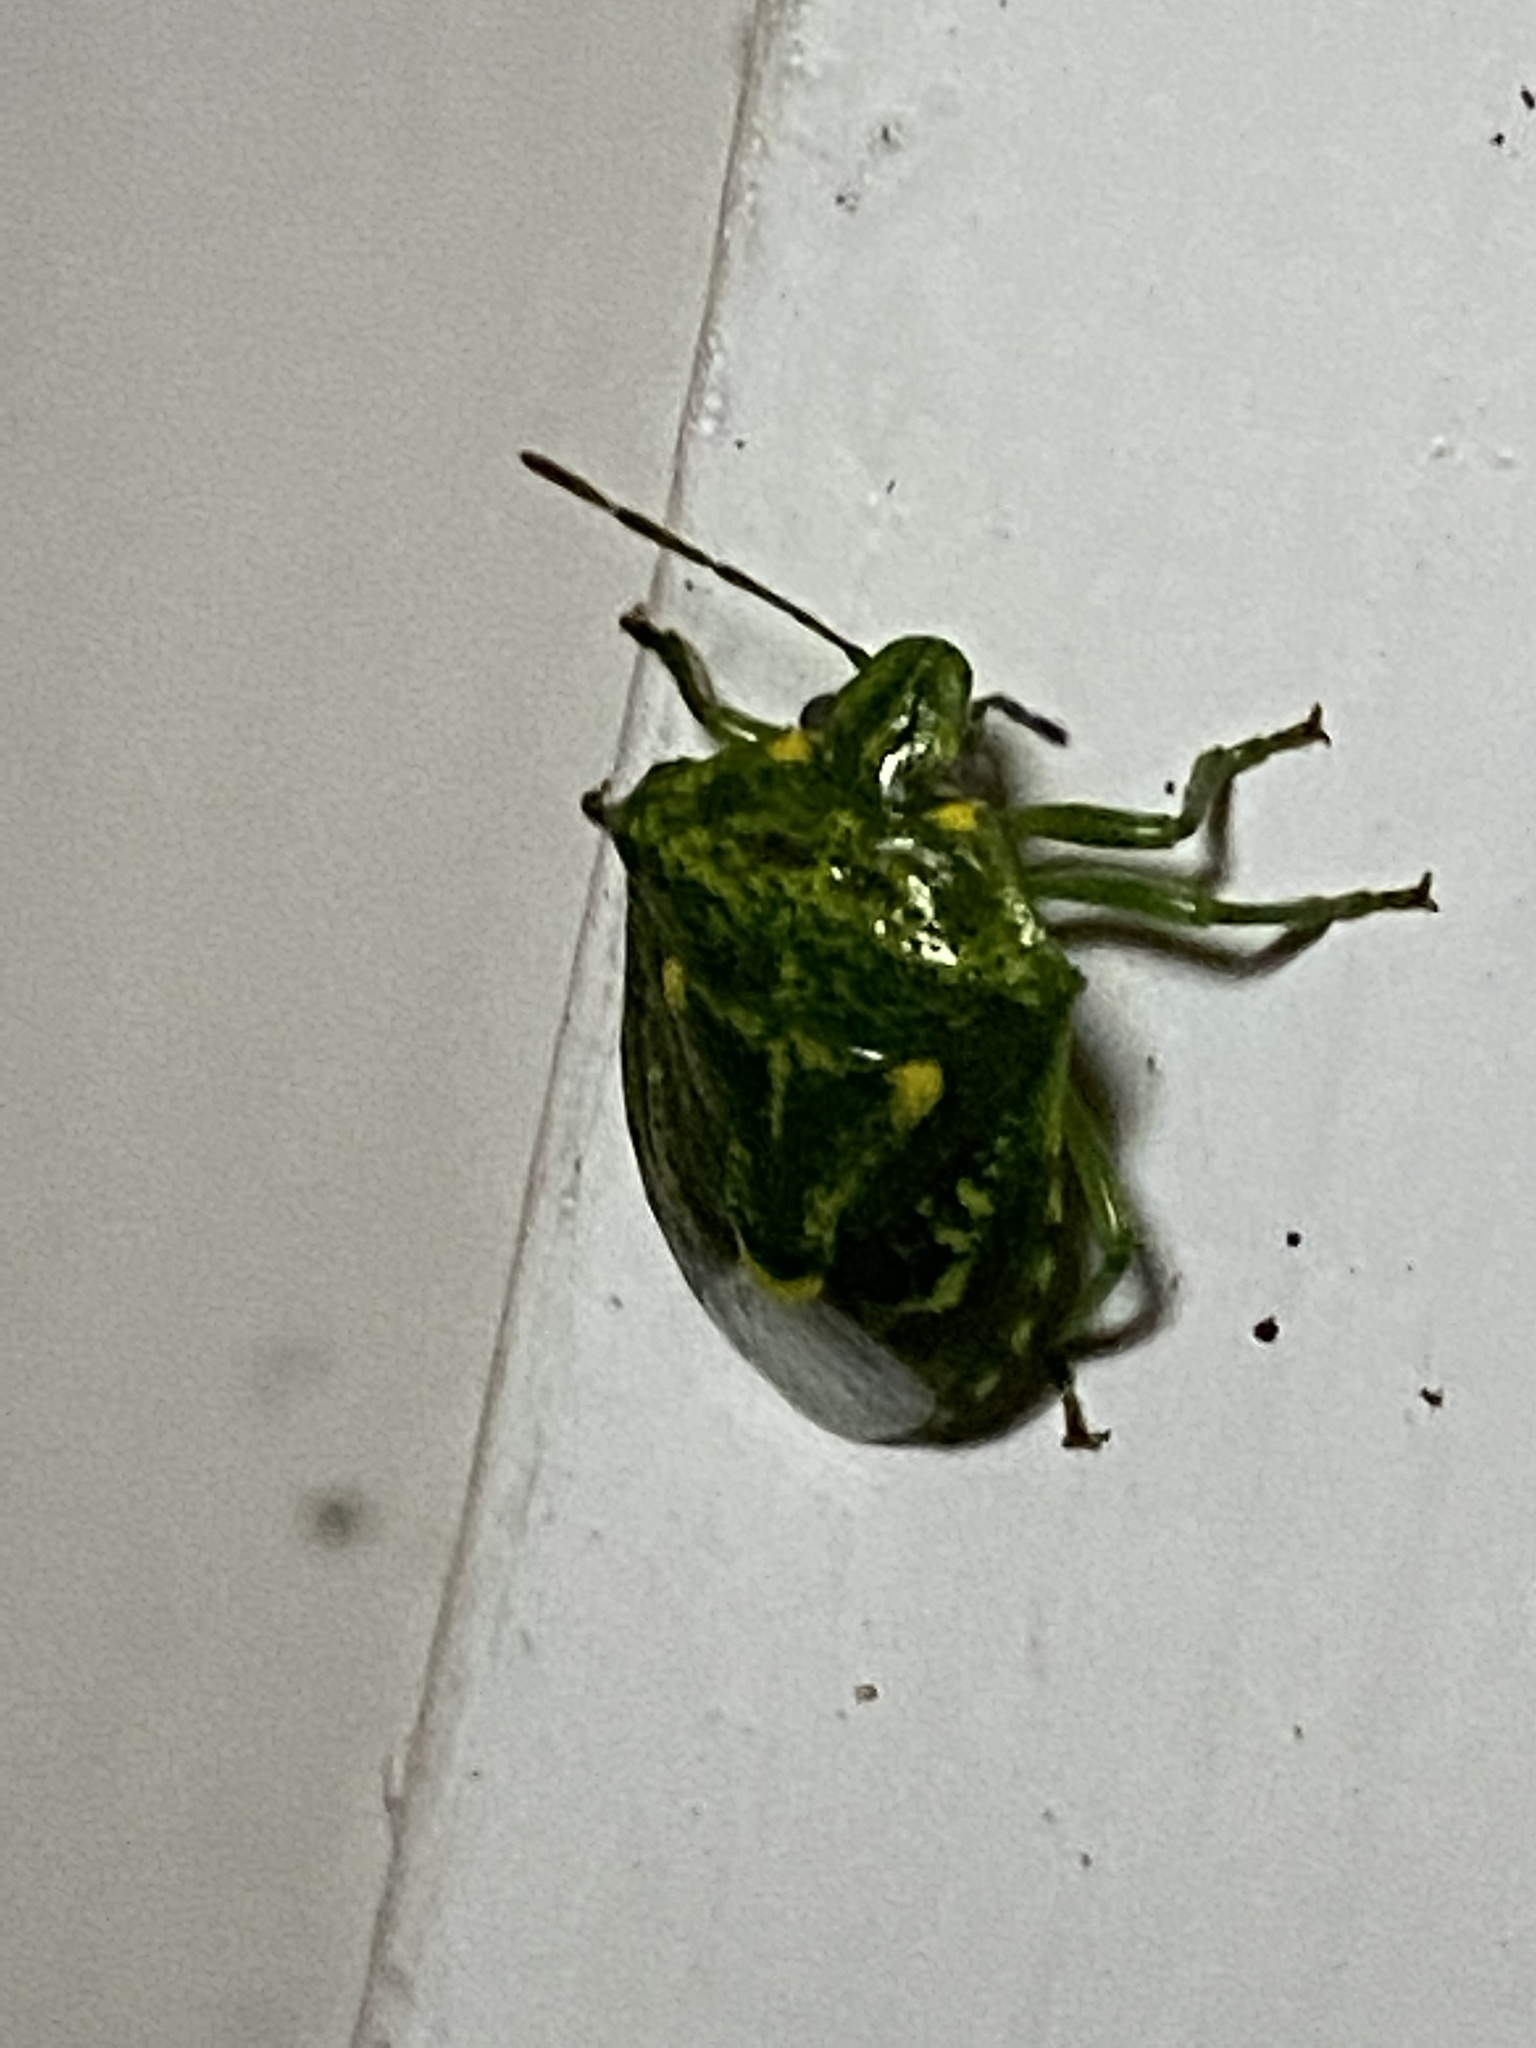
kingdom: Animalia
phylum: Arthropoda
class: Insecta
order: Hemiptera
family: Pentatomidae
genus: Banasa
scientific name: Banasa euchlora
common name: Cedar berry bug
